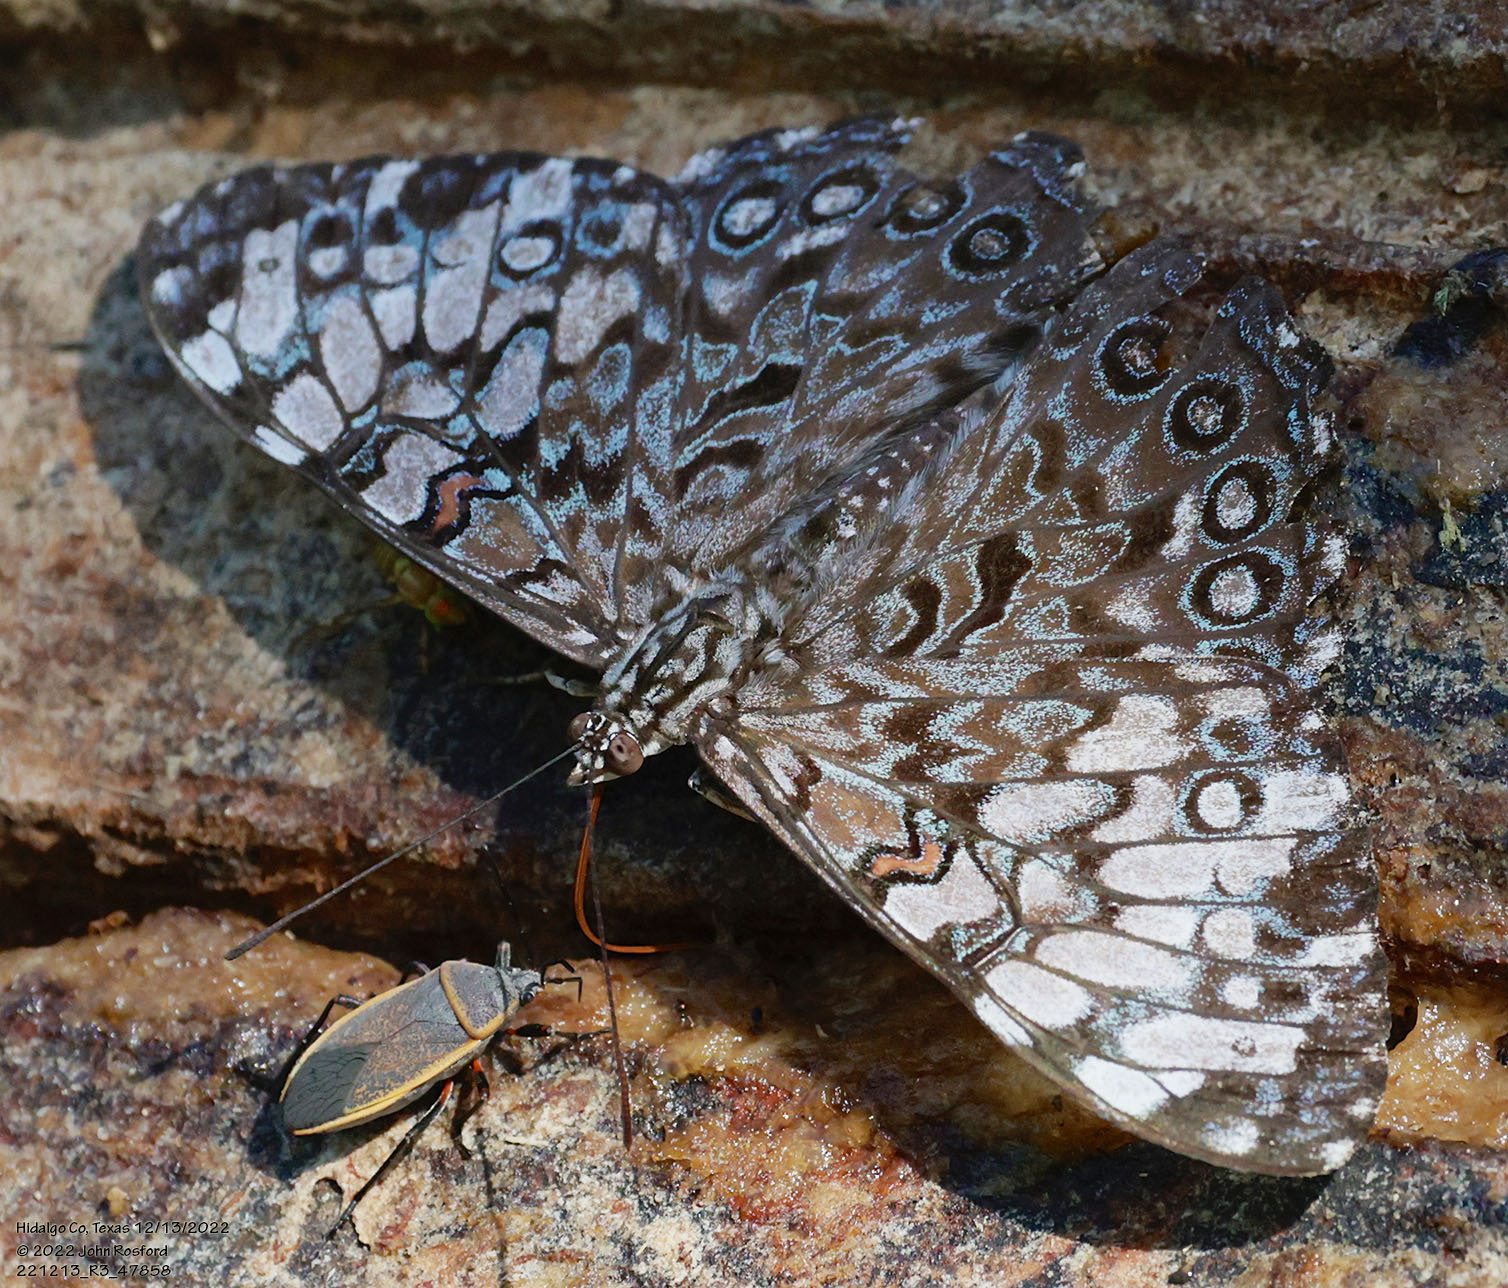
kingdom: Animalia
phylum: Arthropoda
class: Insecta
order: Lepidoptera
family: Nymphalidae
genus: Hamadryas
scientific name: Hamadryas guatemalena
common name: Guatemalan cracker
